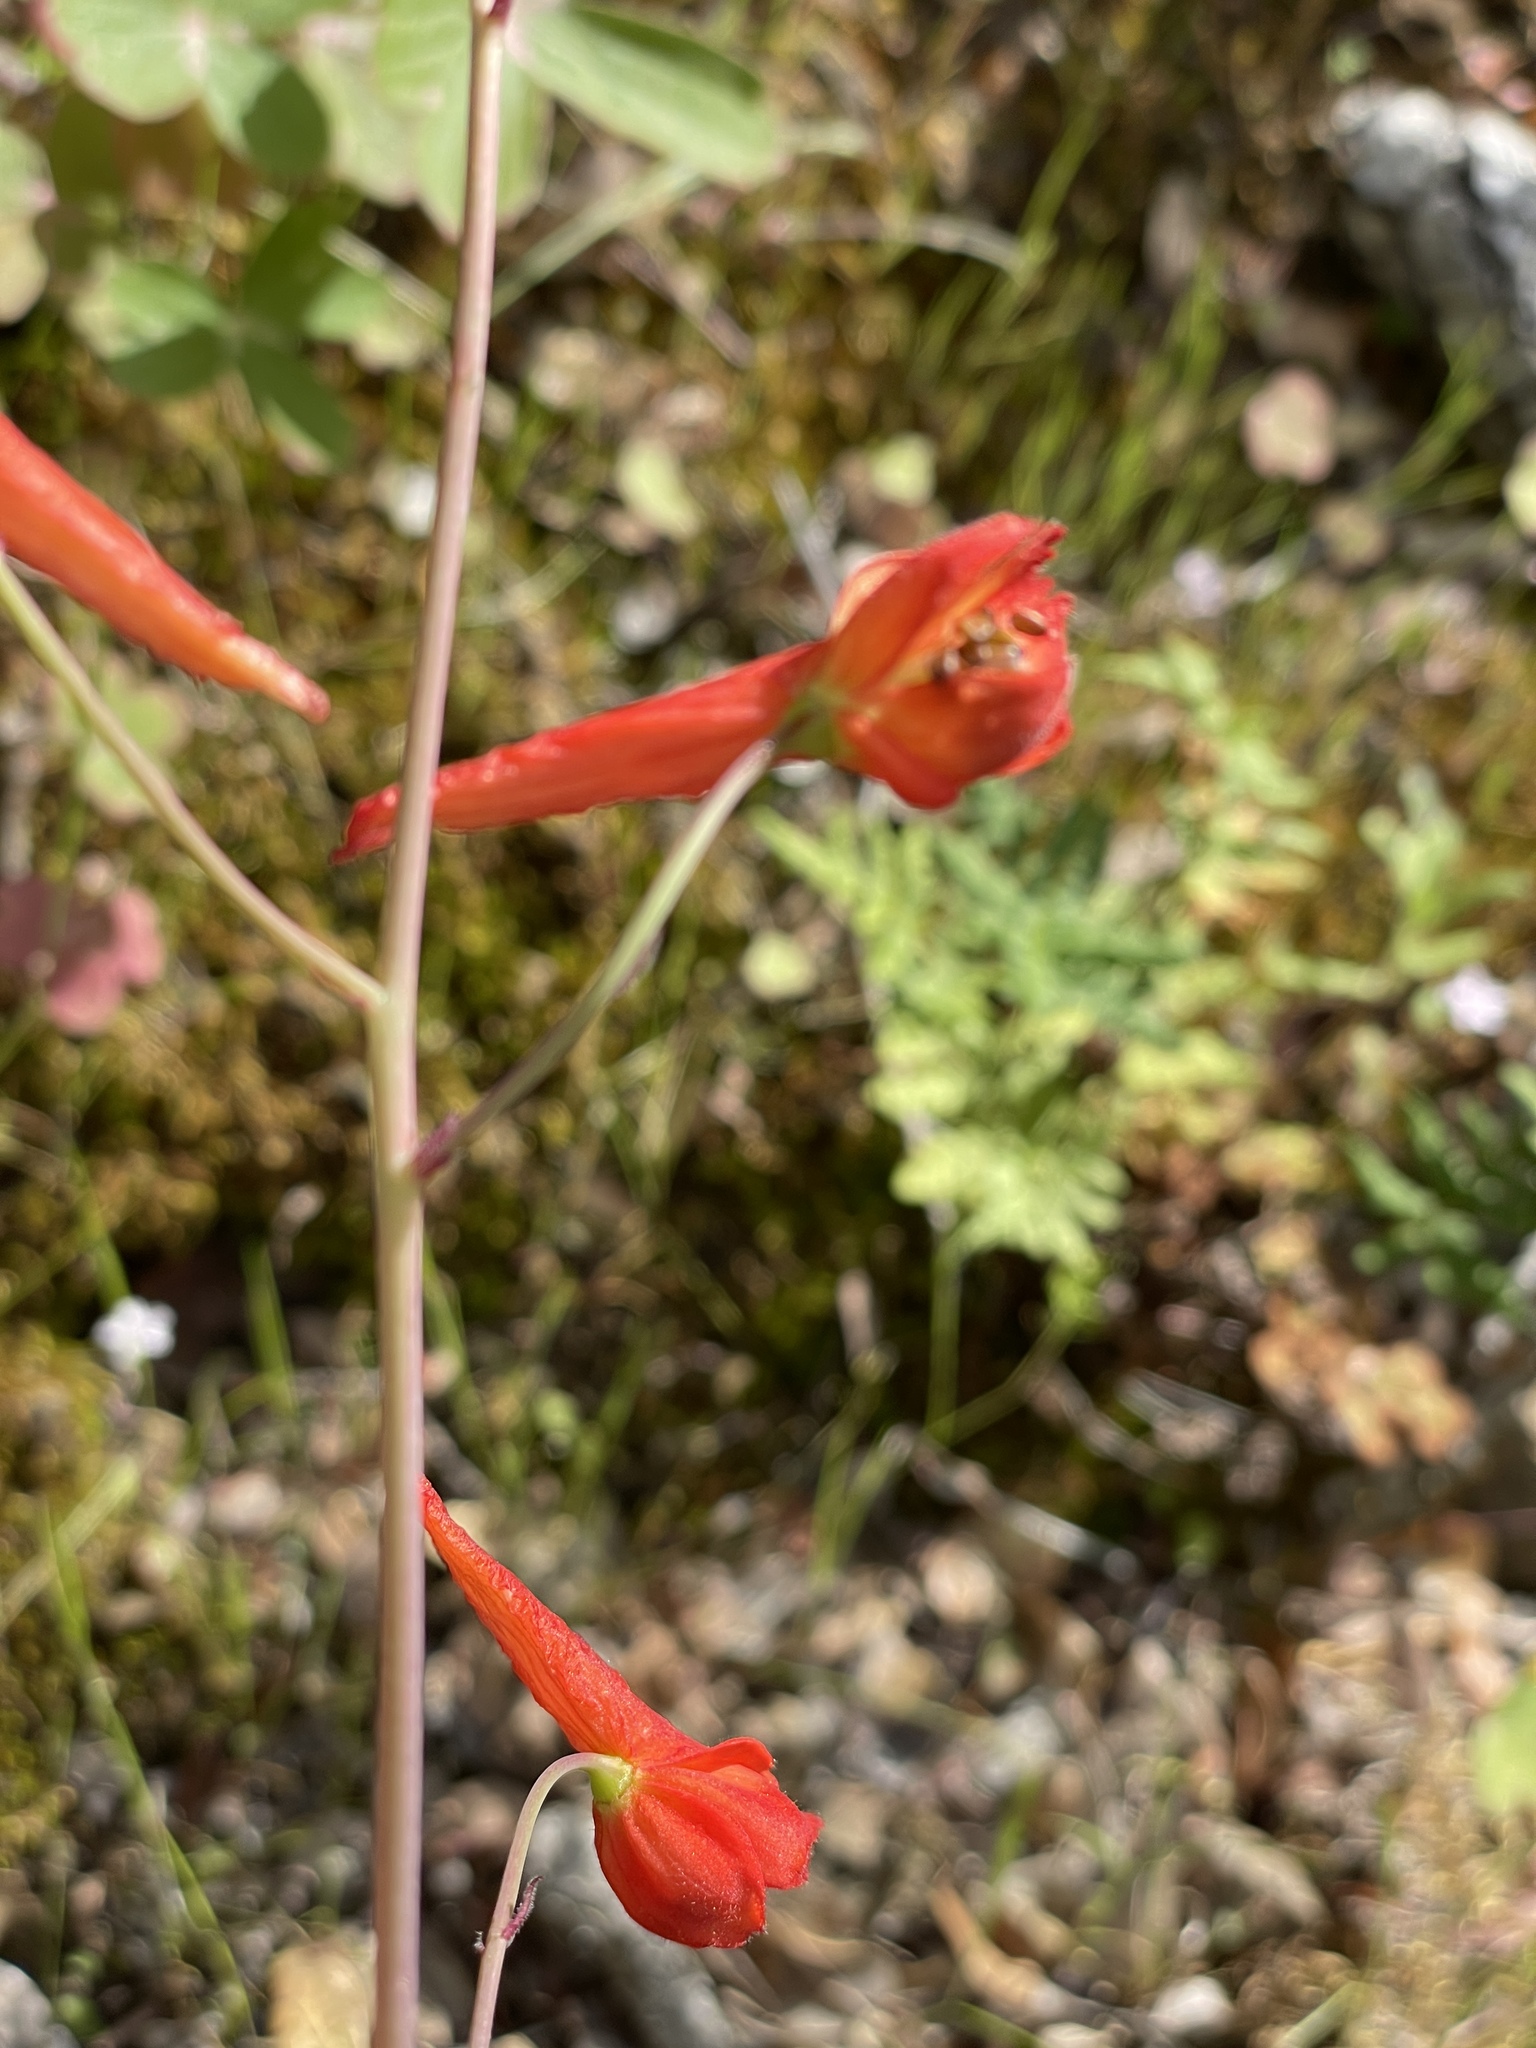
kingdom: Plantae
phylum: Tracheophyta
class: Magnoliopsida
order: Ranunculales
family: Ranunculaceae
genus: Delphinium
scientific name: Delphinium nudicaule
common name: Red larkspur
